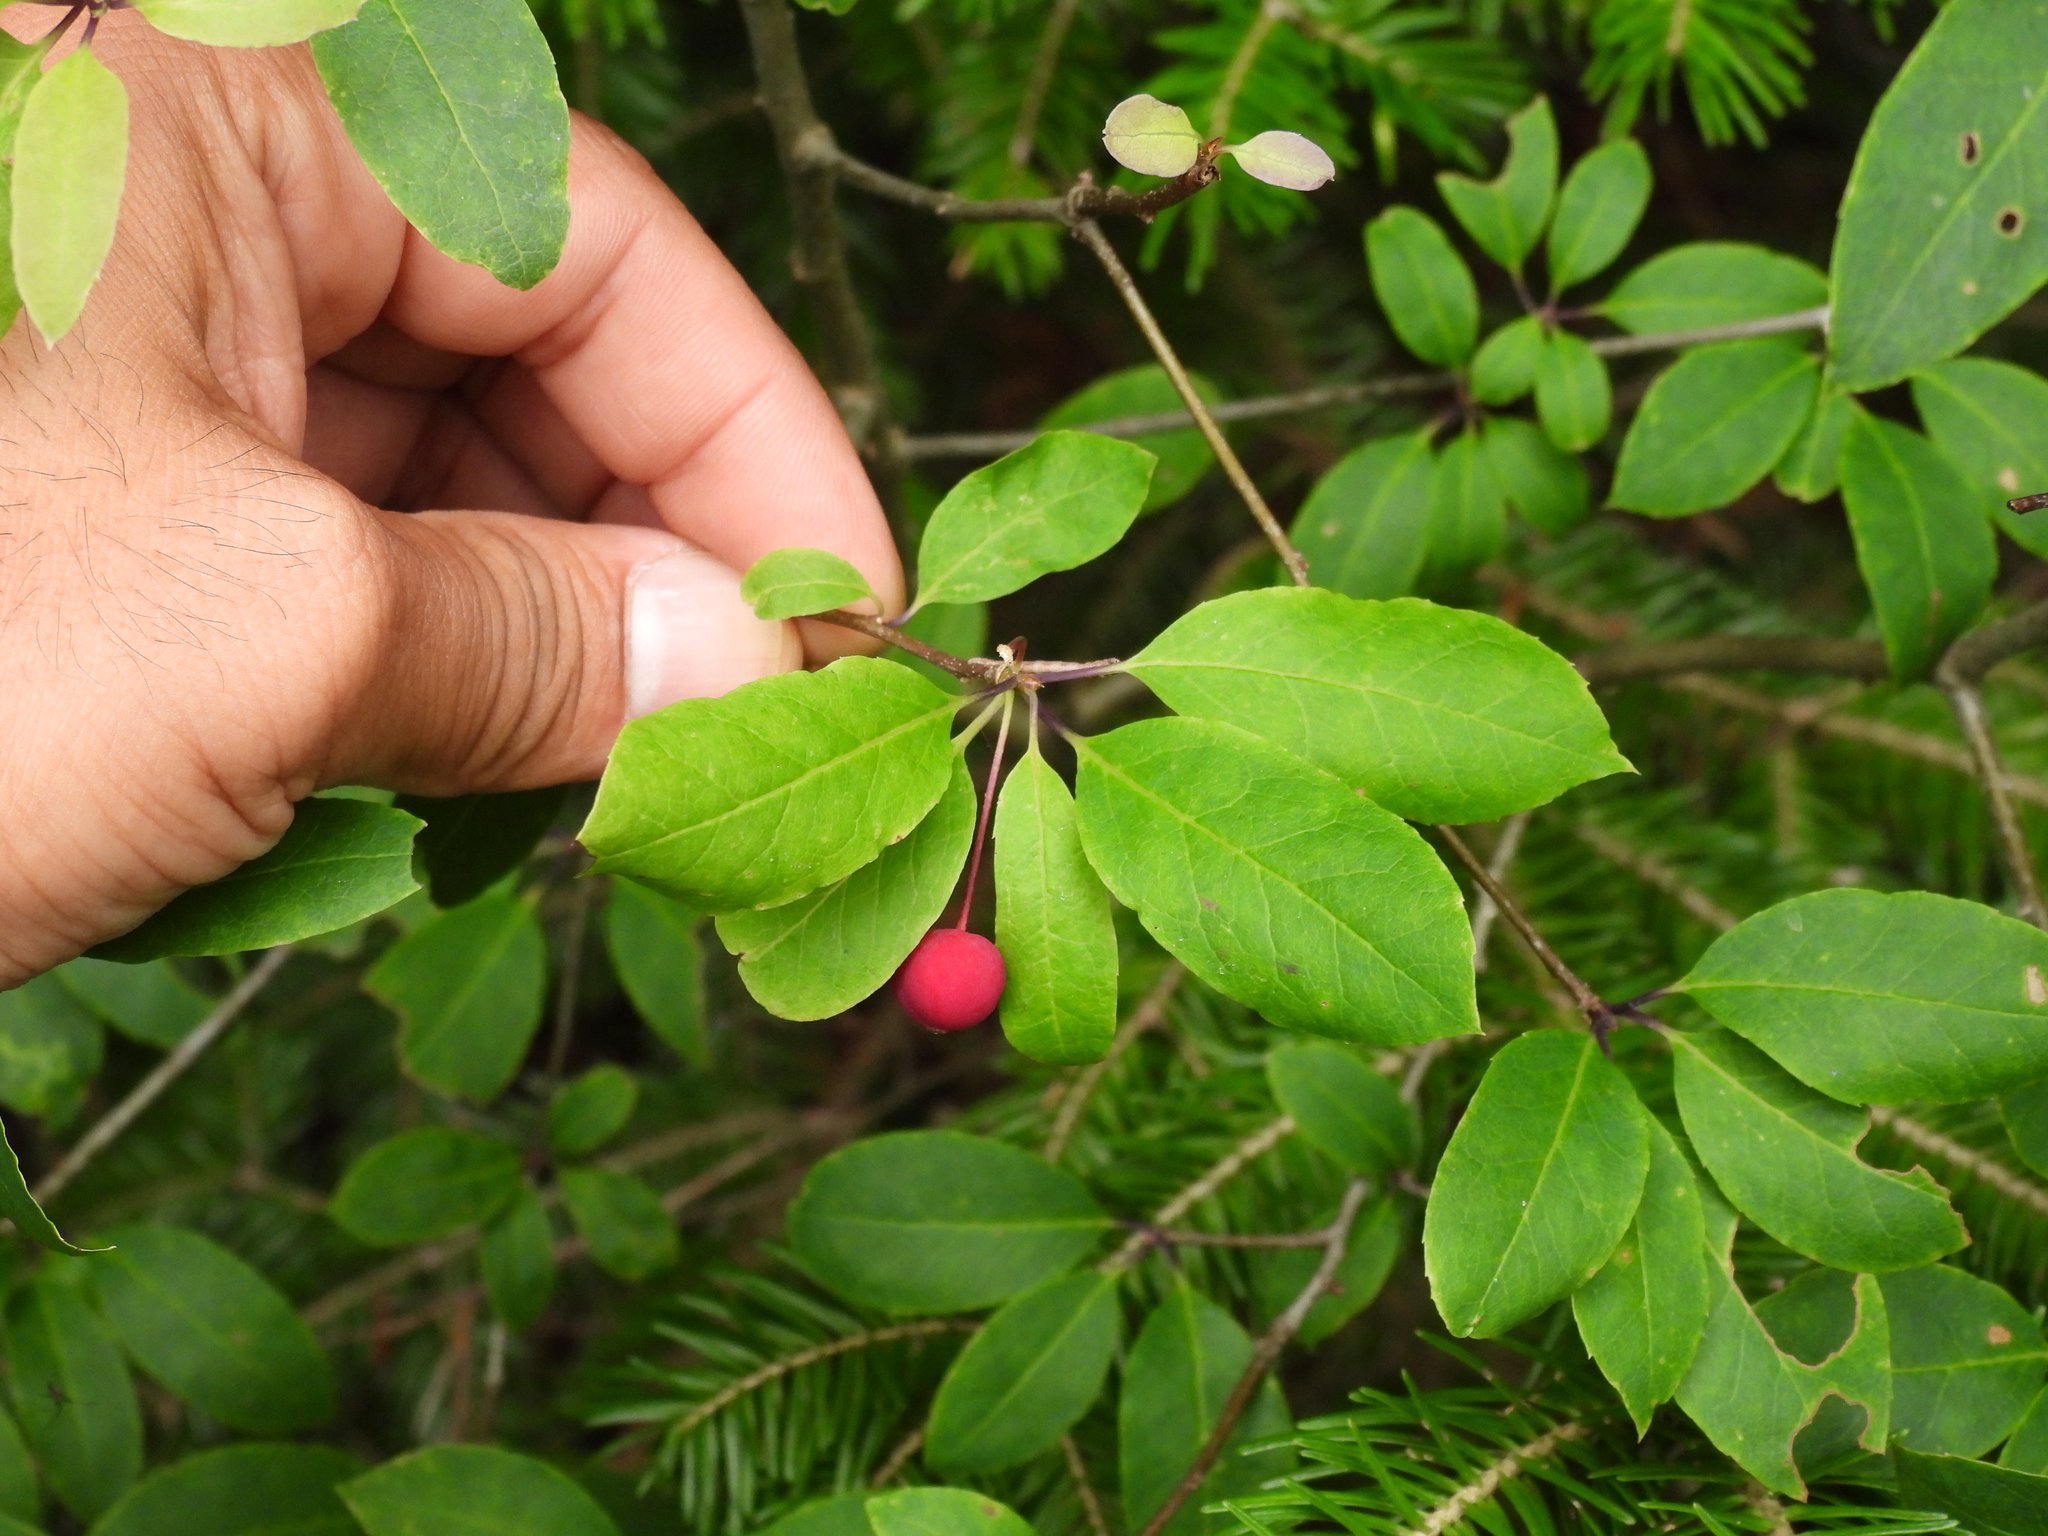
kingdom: Plantae
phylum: Tracheophyta
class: Magnoliopsida
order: Aquifoliales
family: Aquifoliaceae
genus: Ilex
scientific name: Ilex mucronata
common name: Catberry
